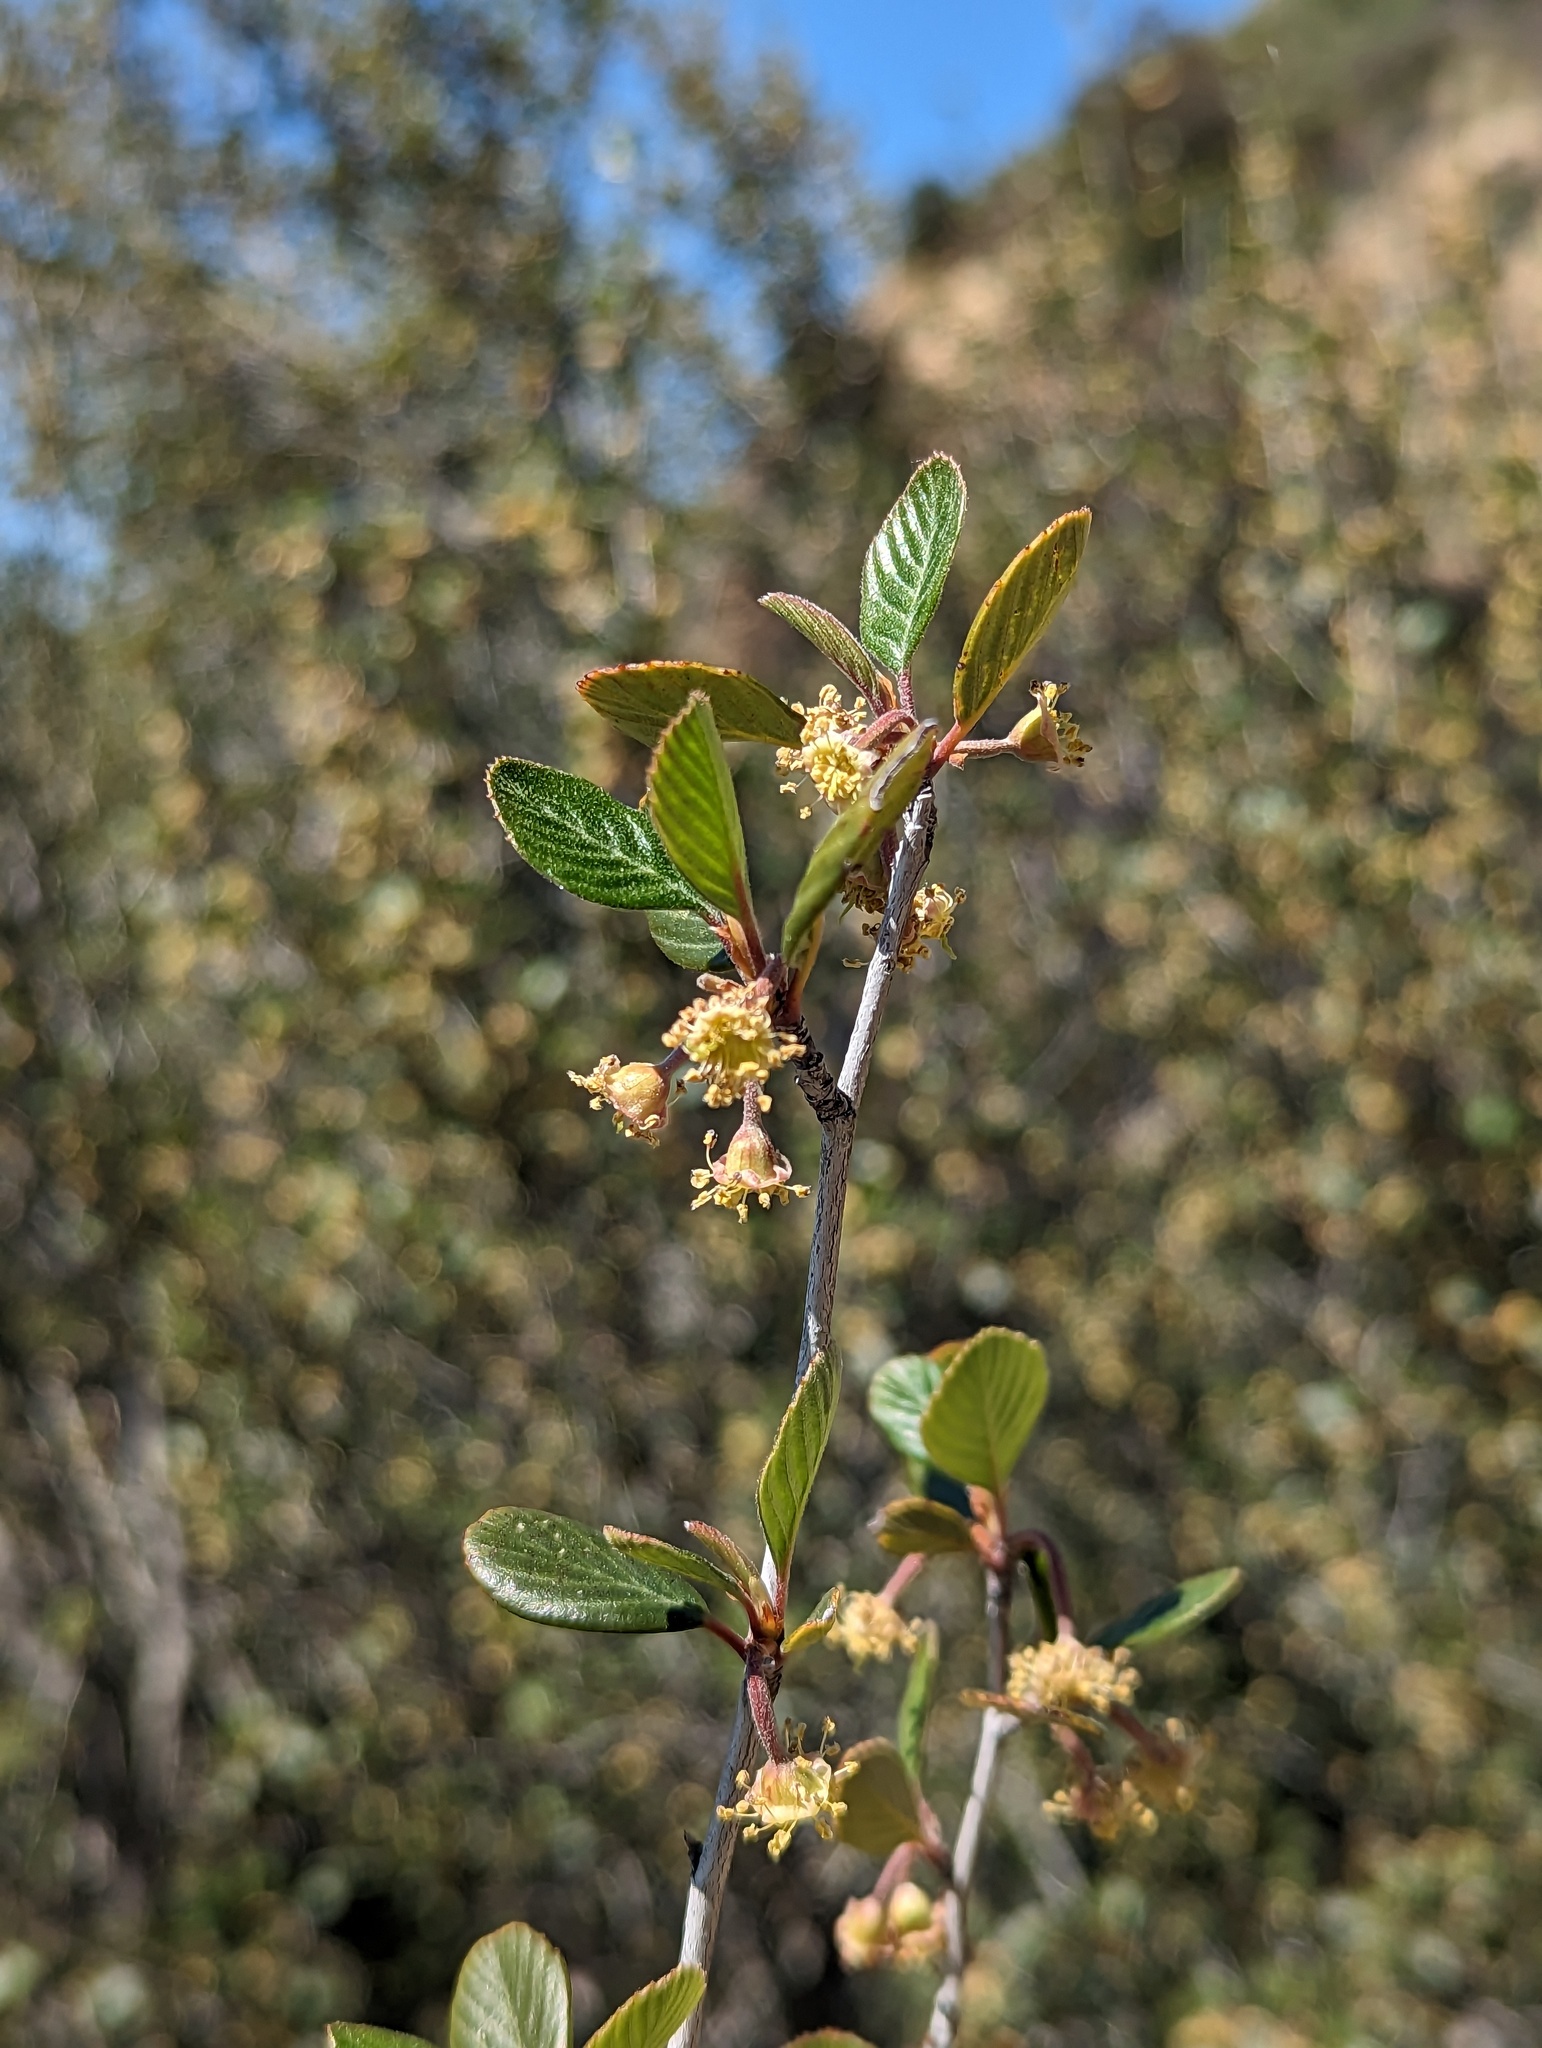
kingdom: Plantae
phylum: Tracheophyta
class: Magnoliopsida
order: Rosales
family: Rosaceae
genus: Cercocarpus
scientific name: Cercocarpus betuloides
